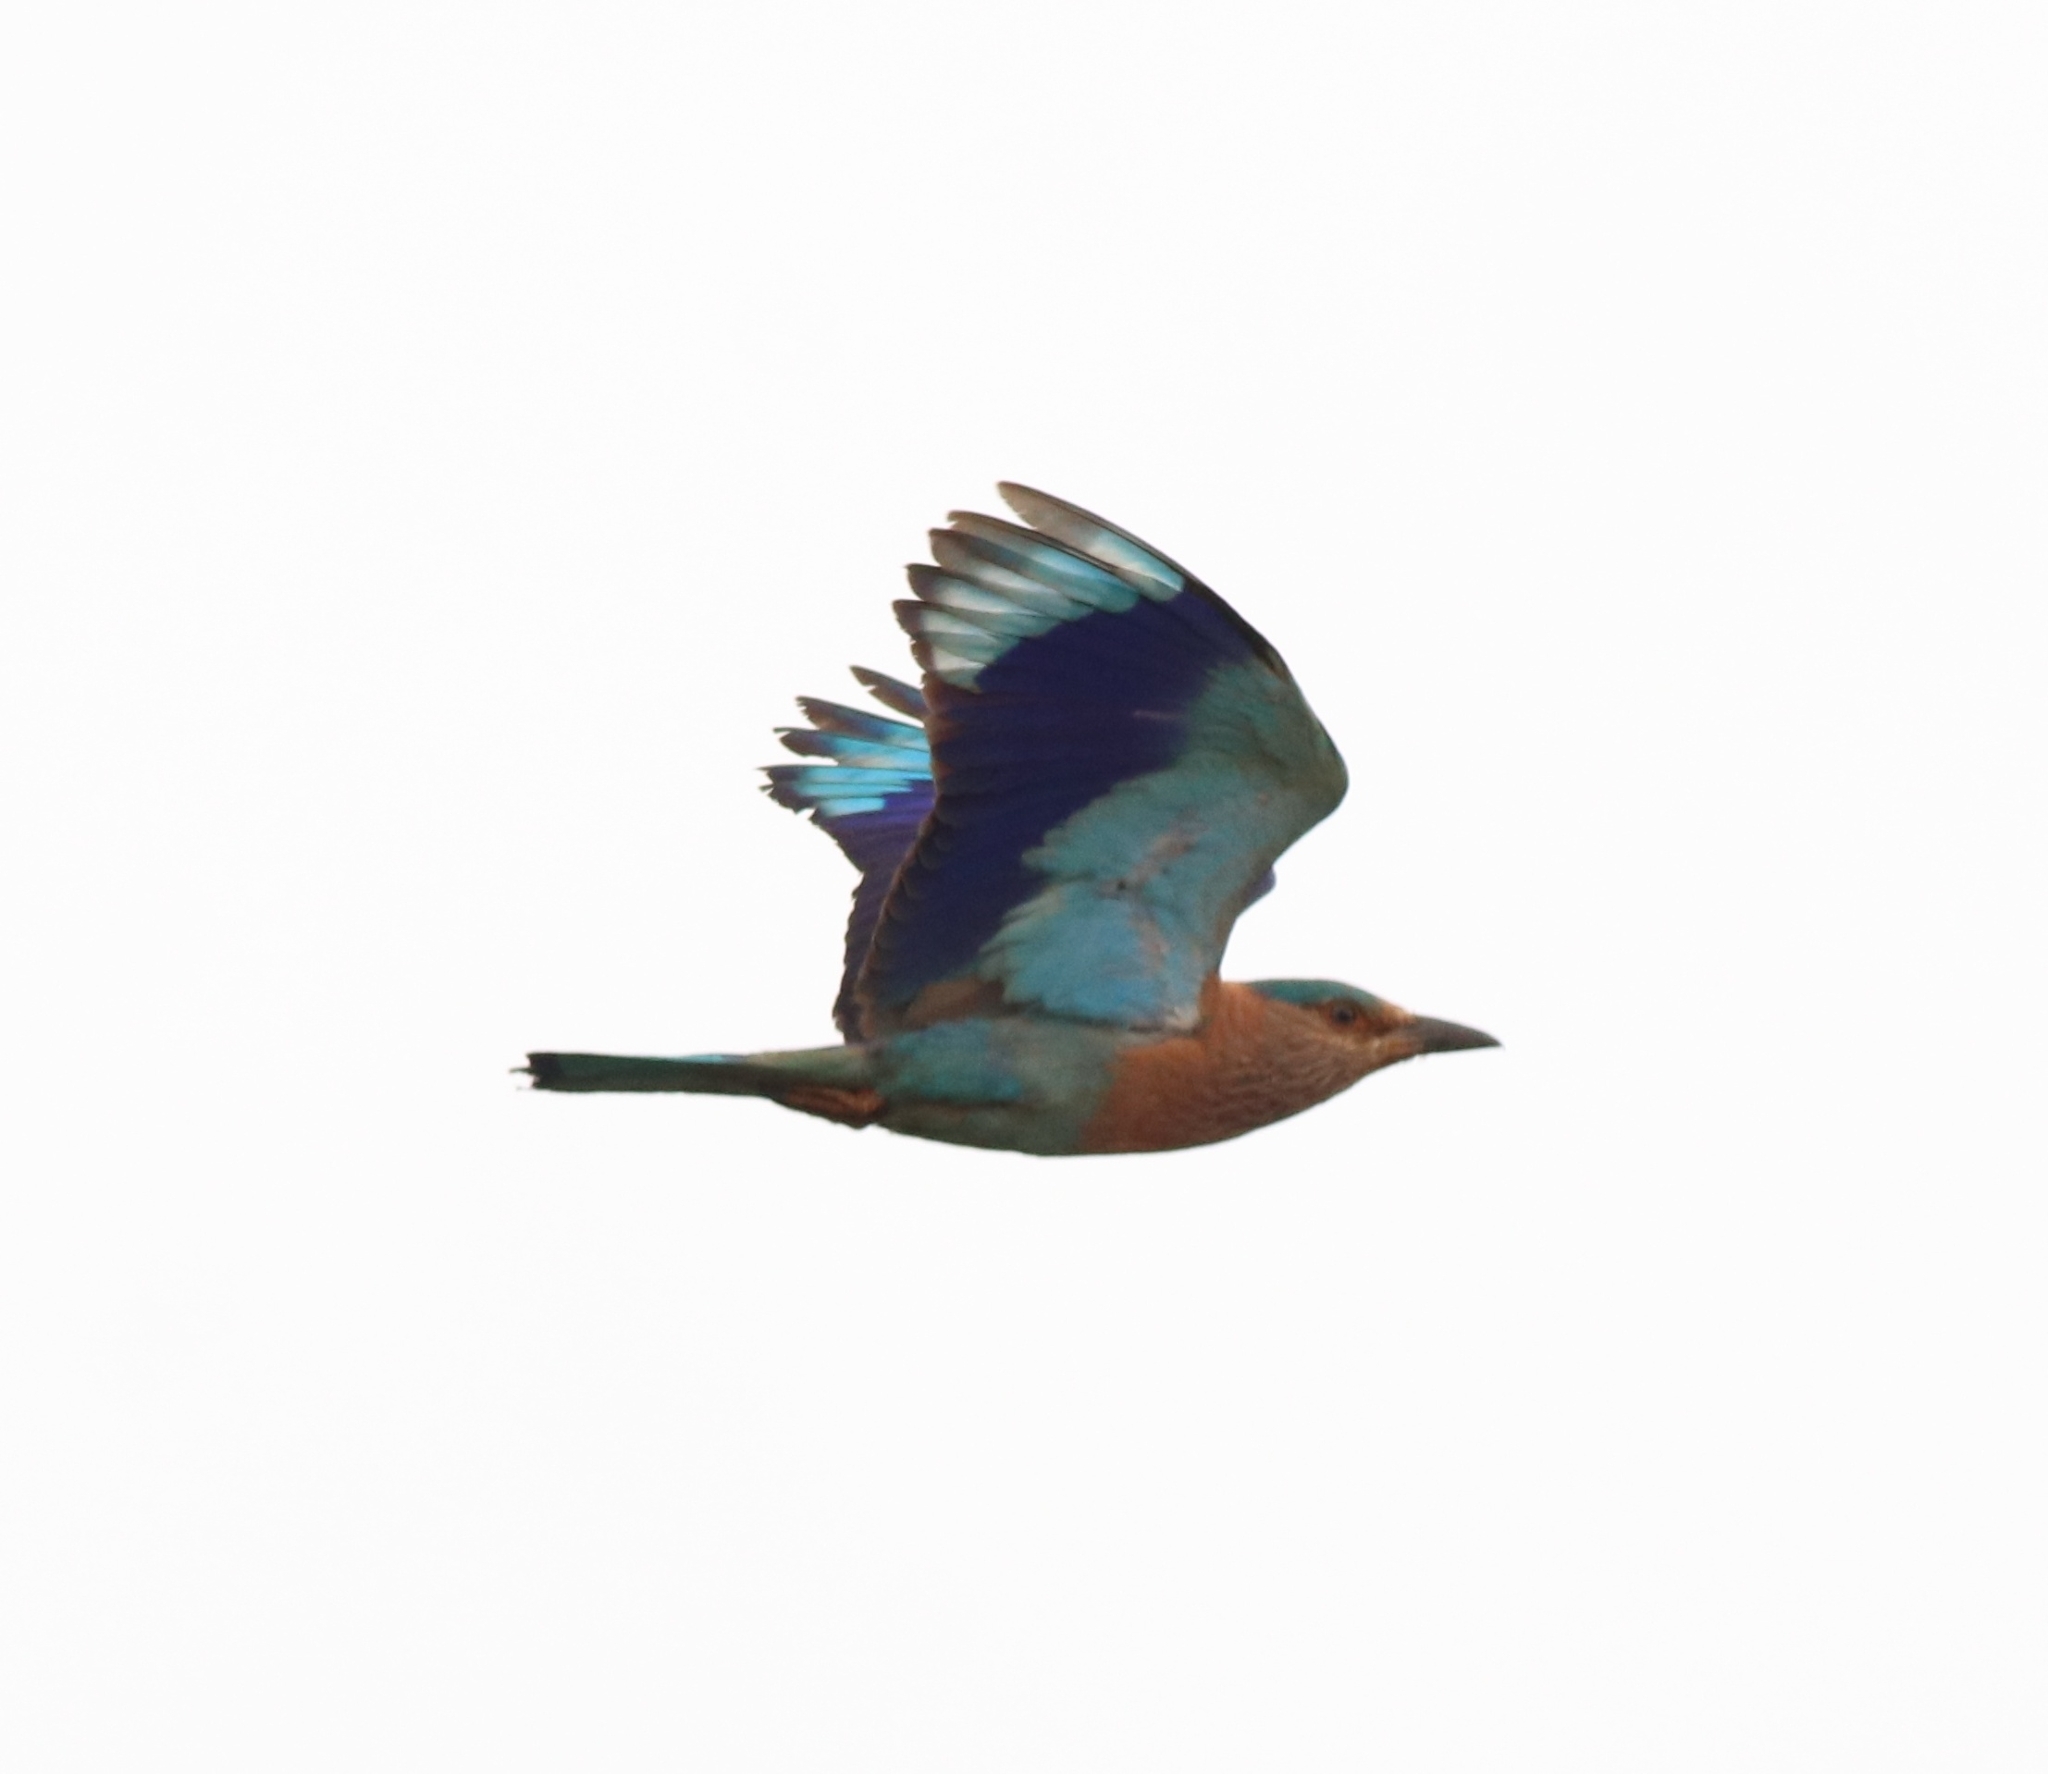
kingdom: Animalia
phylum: Chordata
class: Aves
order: Coraciiformes
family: Coraciidae
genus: Coracias
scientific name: Coracias benghalensis
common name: Indian roller
